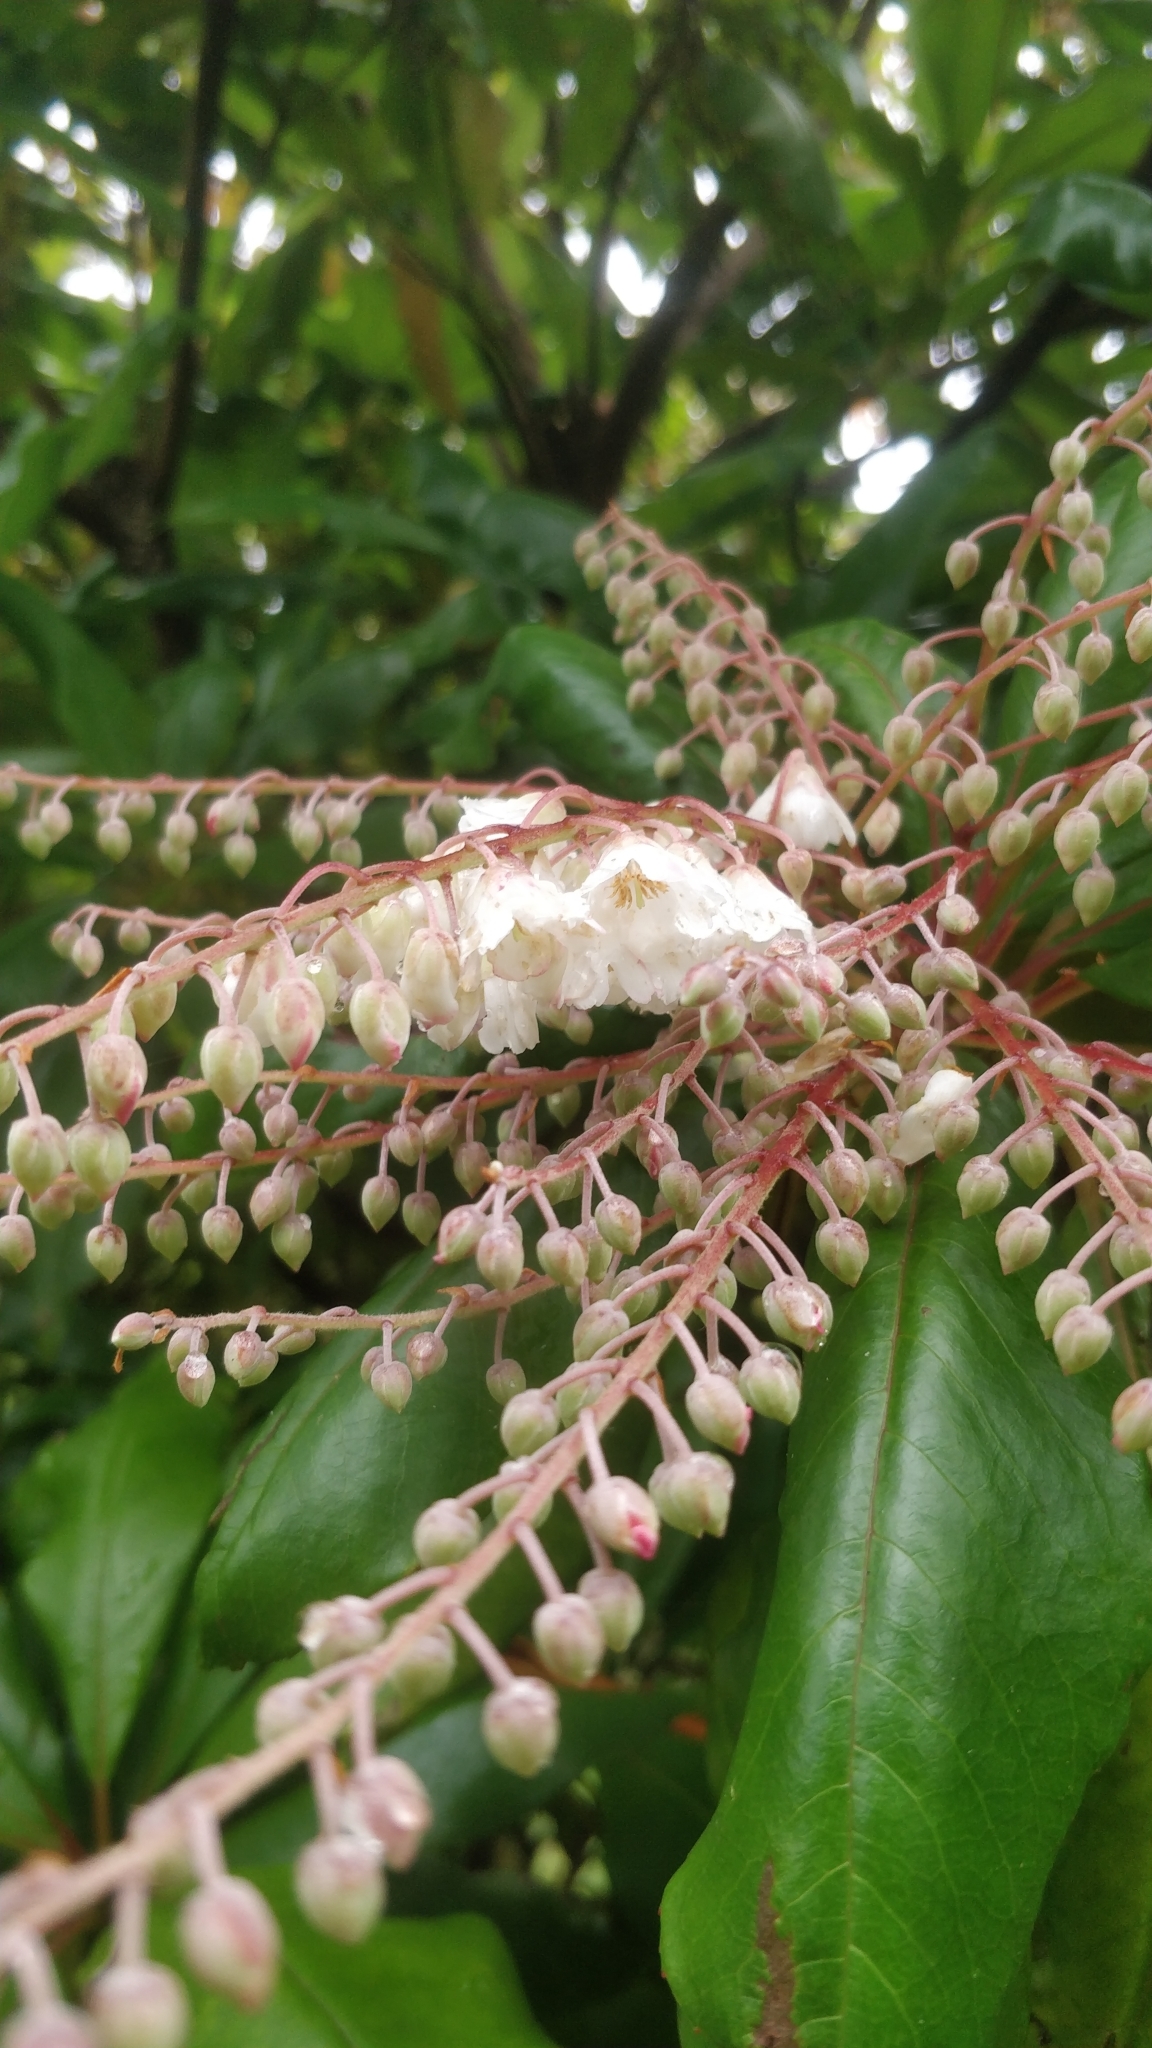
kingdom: Plantae
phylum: Tracheophyta
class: Magnoliopsida
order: Ericales
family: Clethraceae
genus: Clethra
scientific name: Clethra arborea
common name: Lily-of-the-valley-tree
